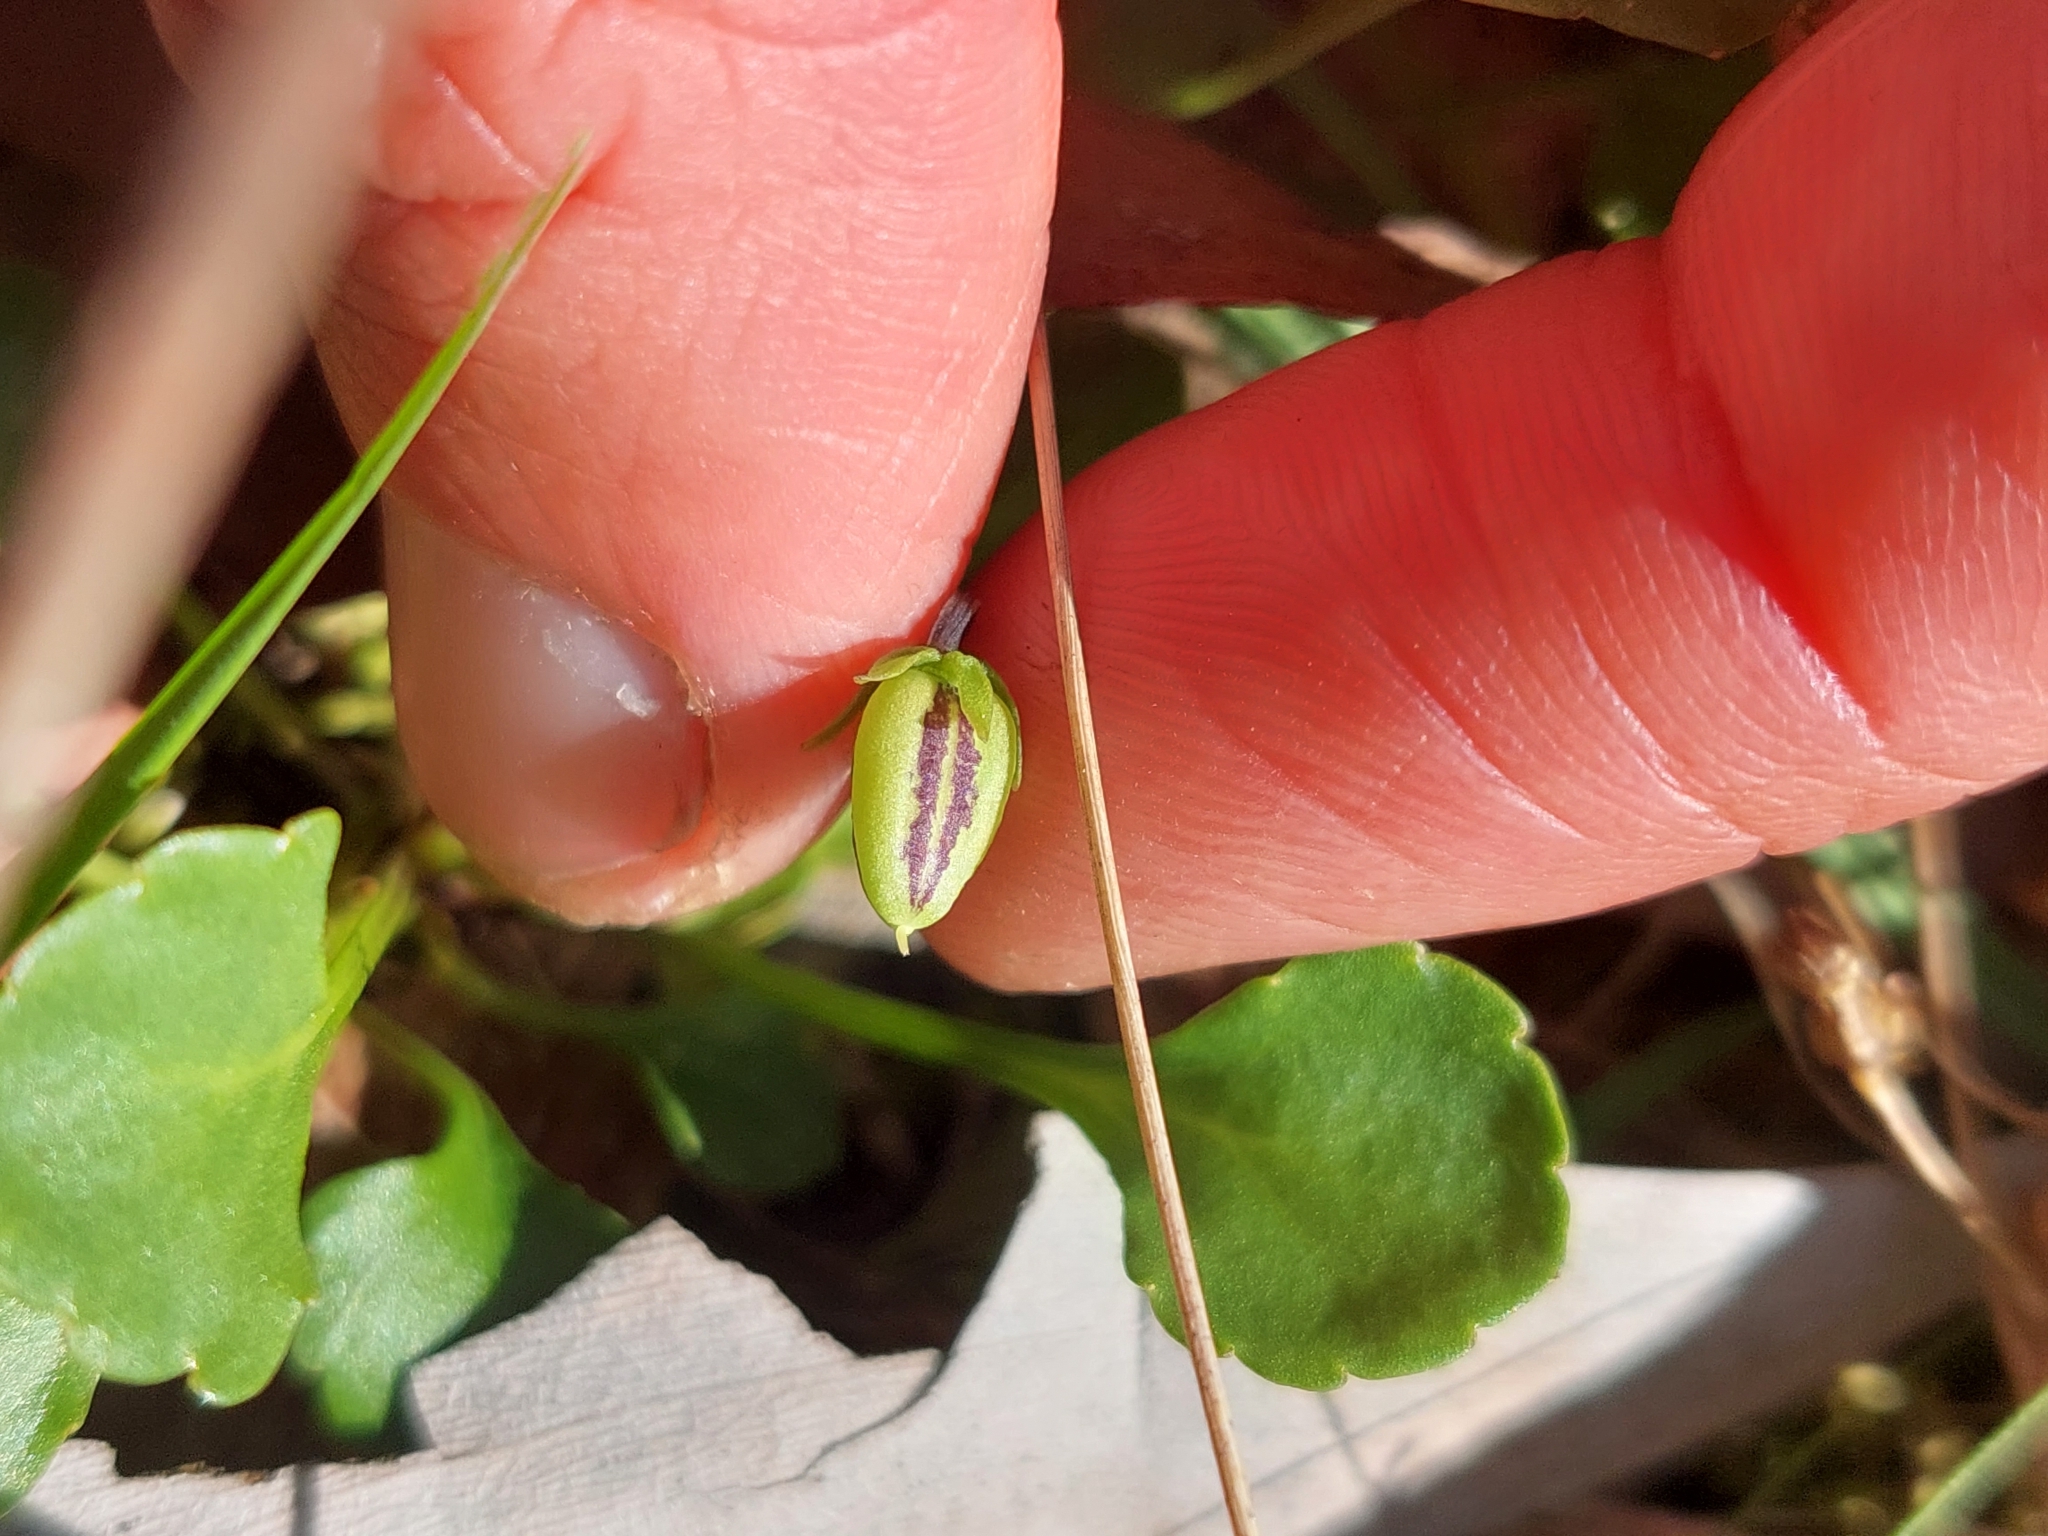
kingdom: Plantae
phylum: Tracheophyta
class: Magnoliopsida
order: Malpighiales
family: Violaceae
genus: Viola
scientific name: Viola cleistogamoides
